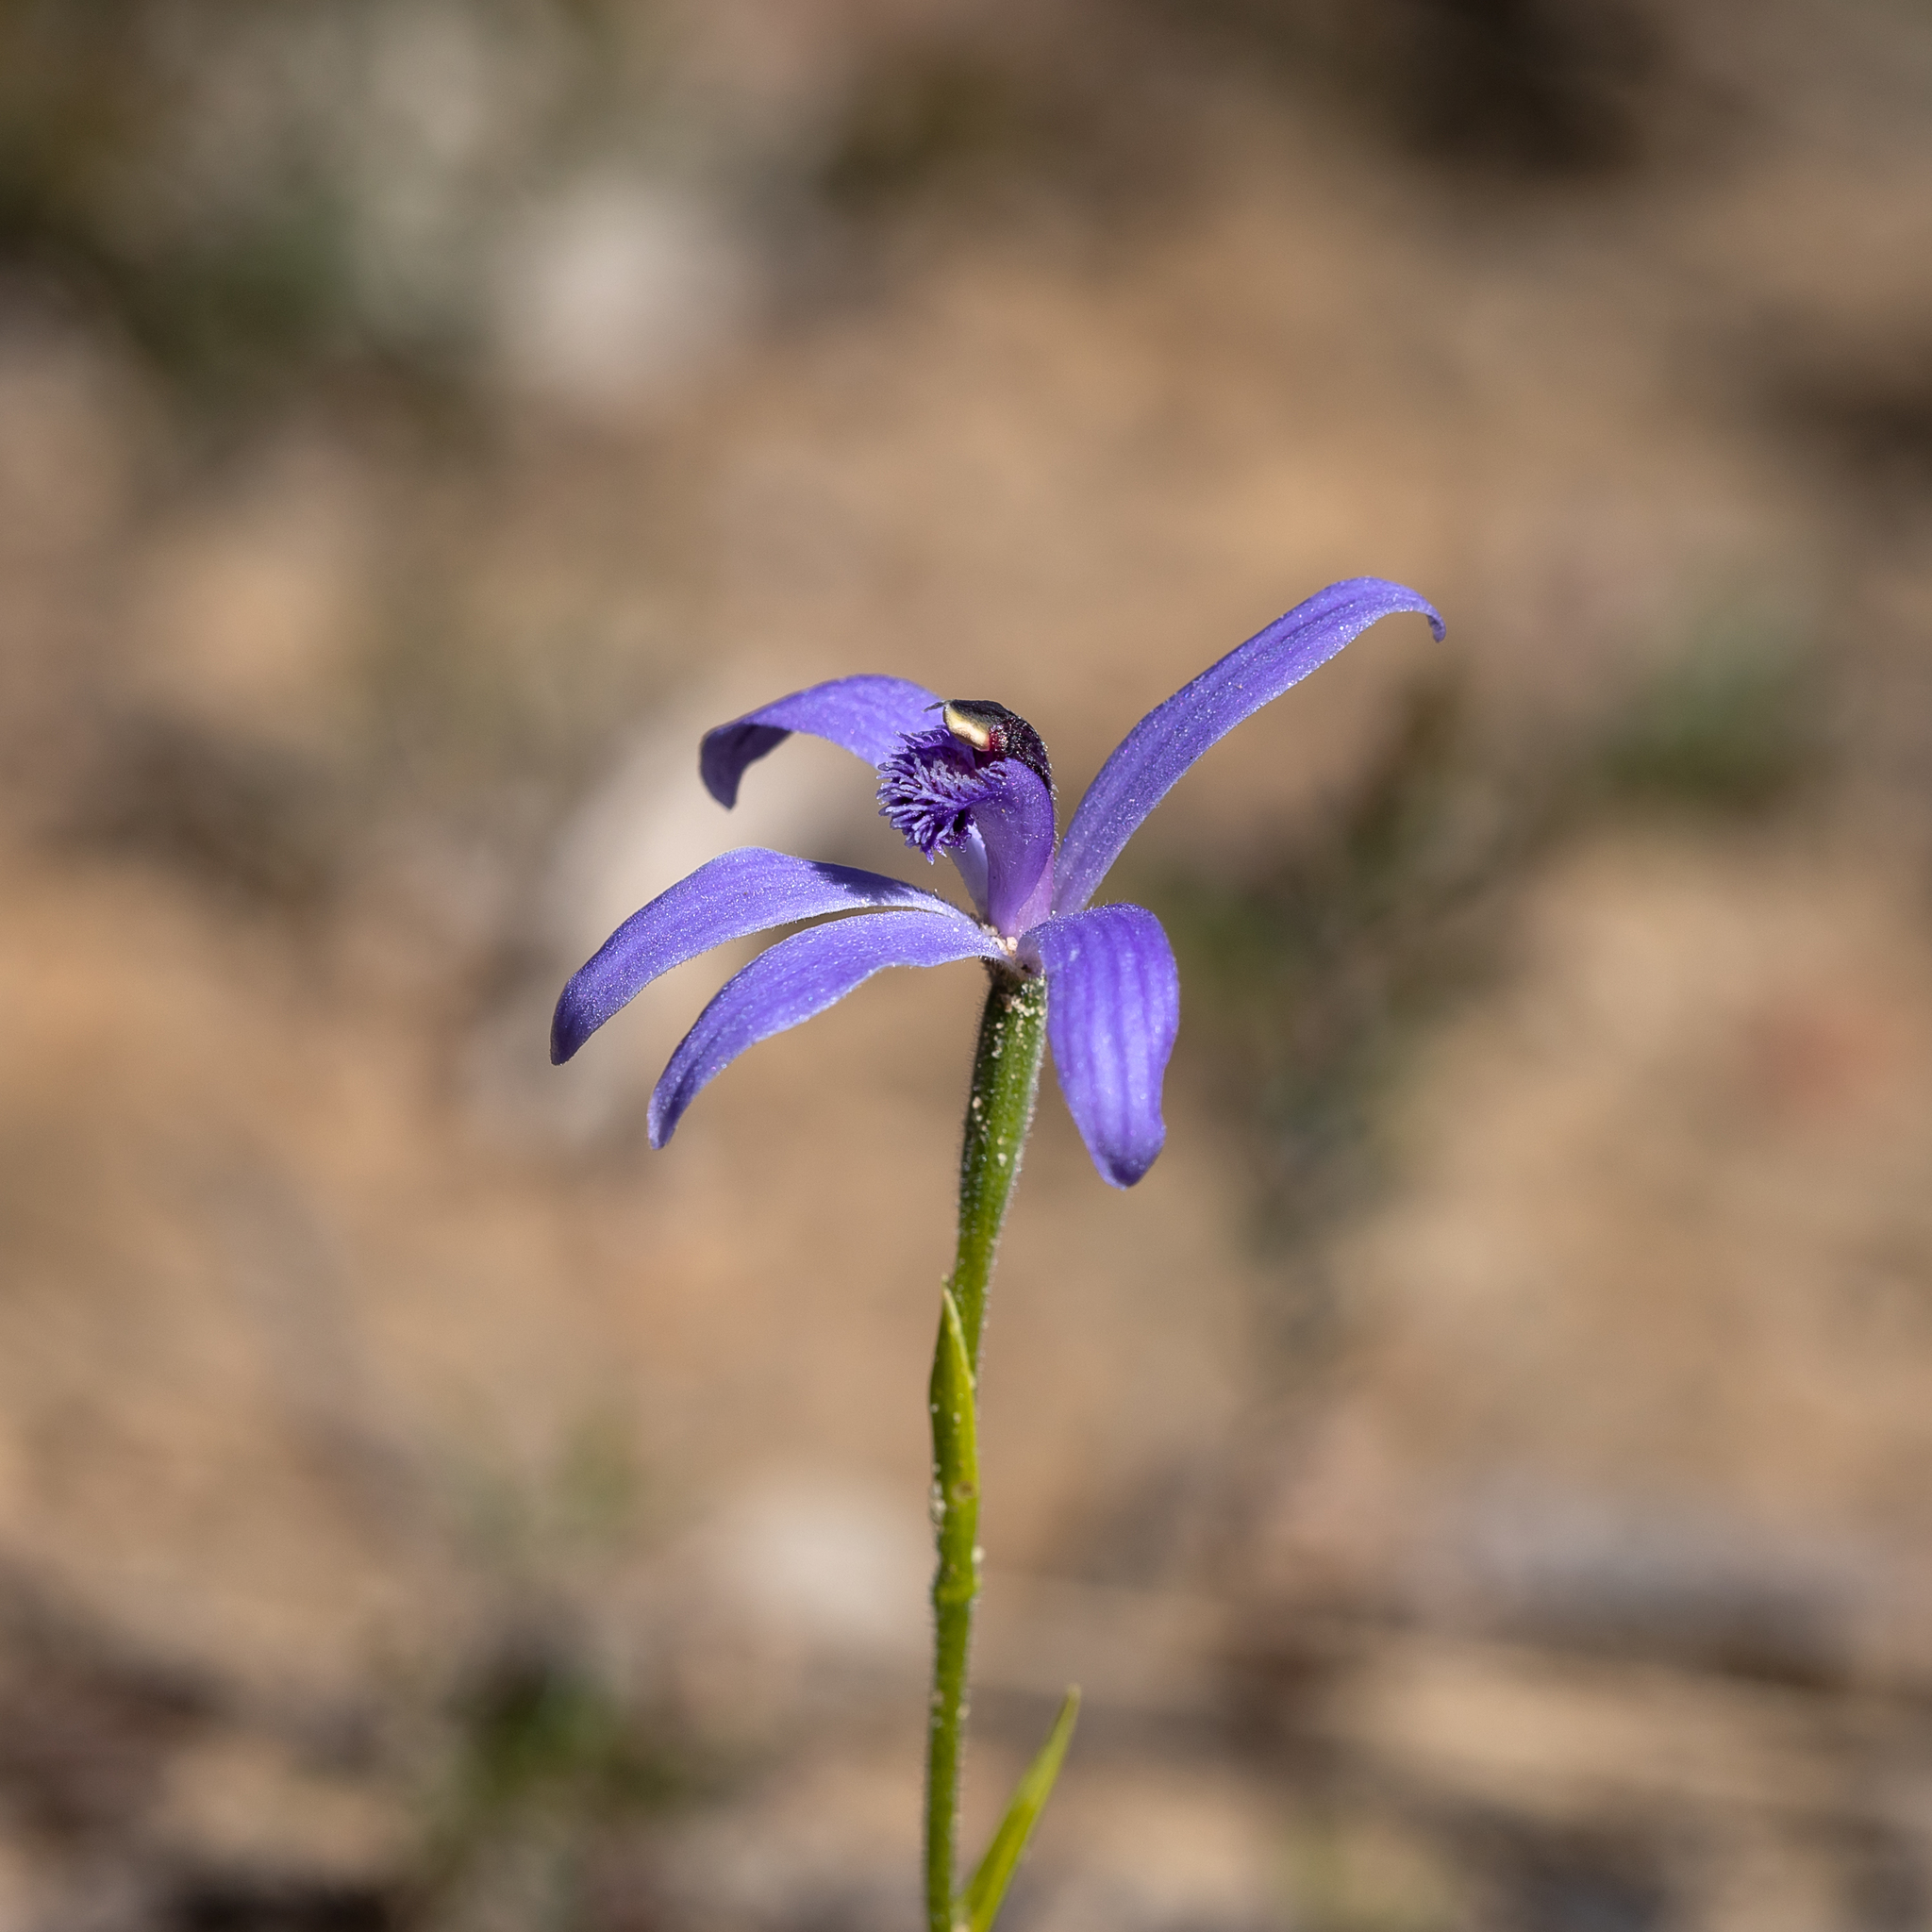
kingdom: Plantae
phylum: Tracheophyta
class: Liliopsida
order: Asparagales
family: Orchidaceae
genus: Pheladenia
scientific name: Pheladenia deformis
